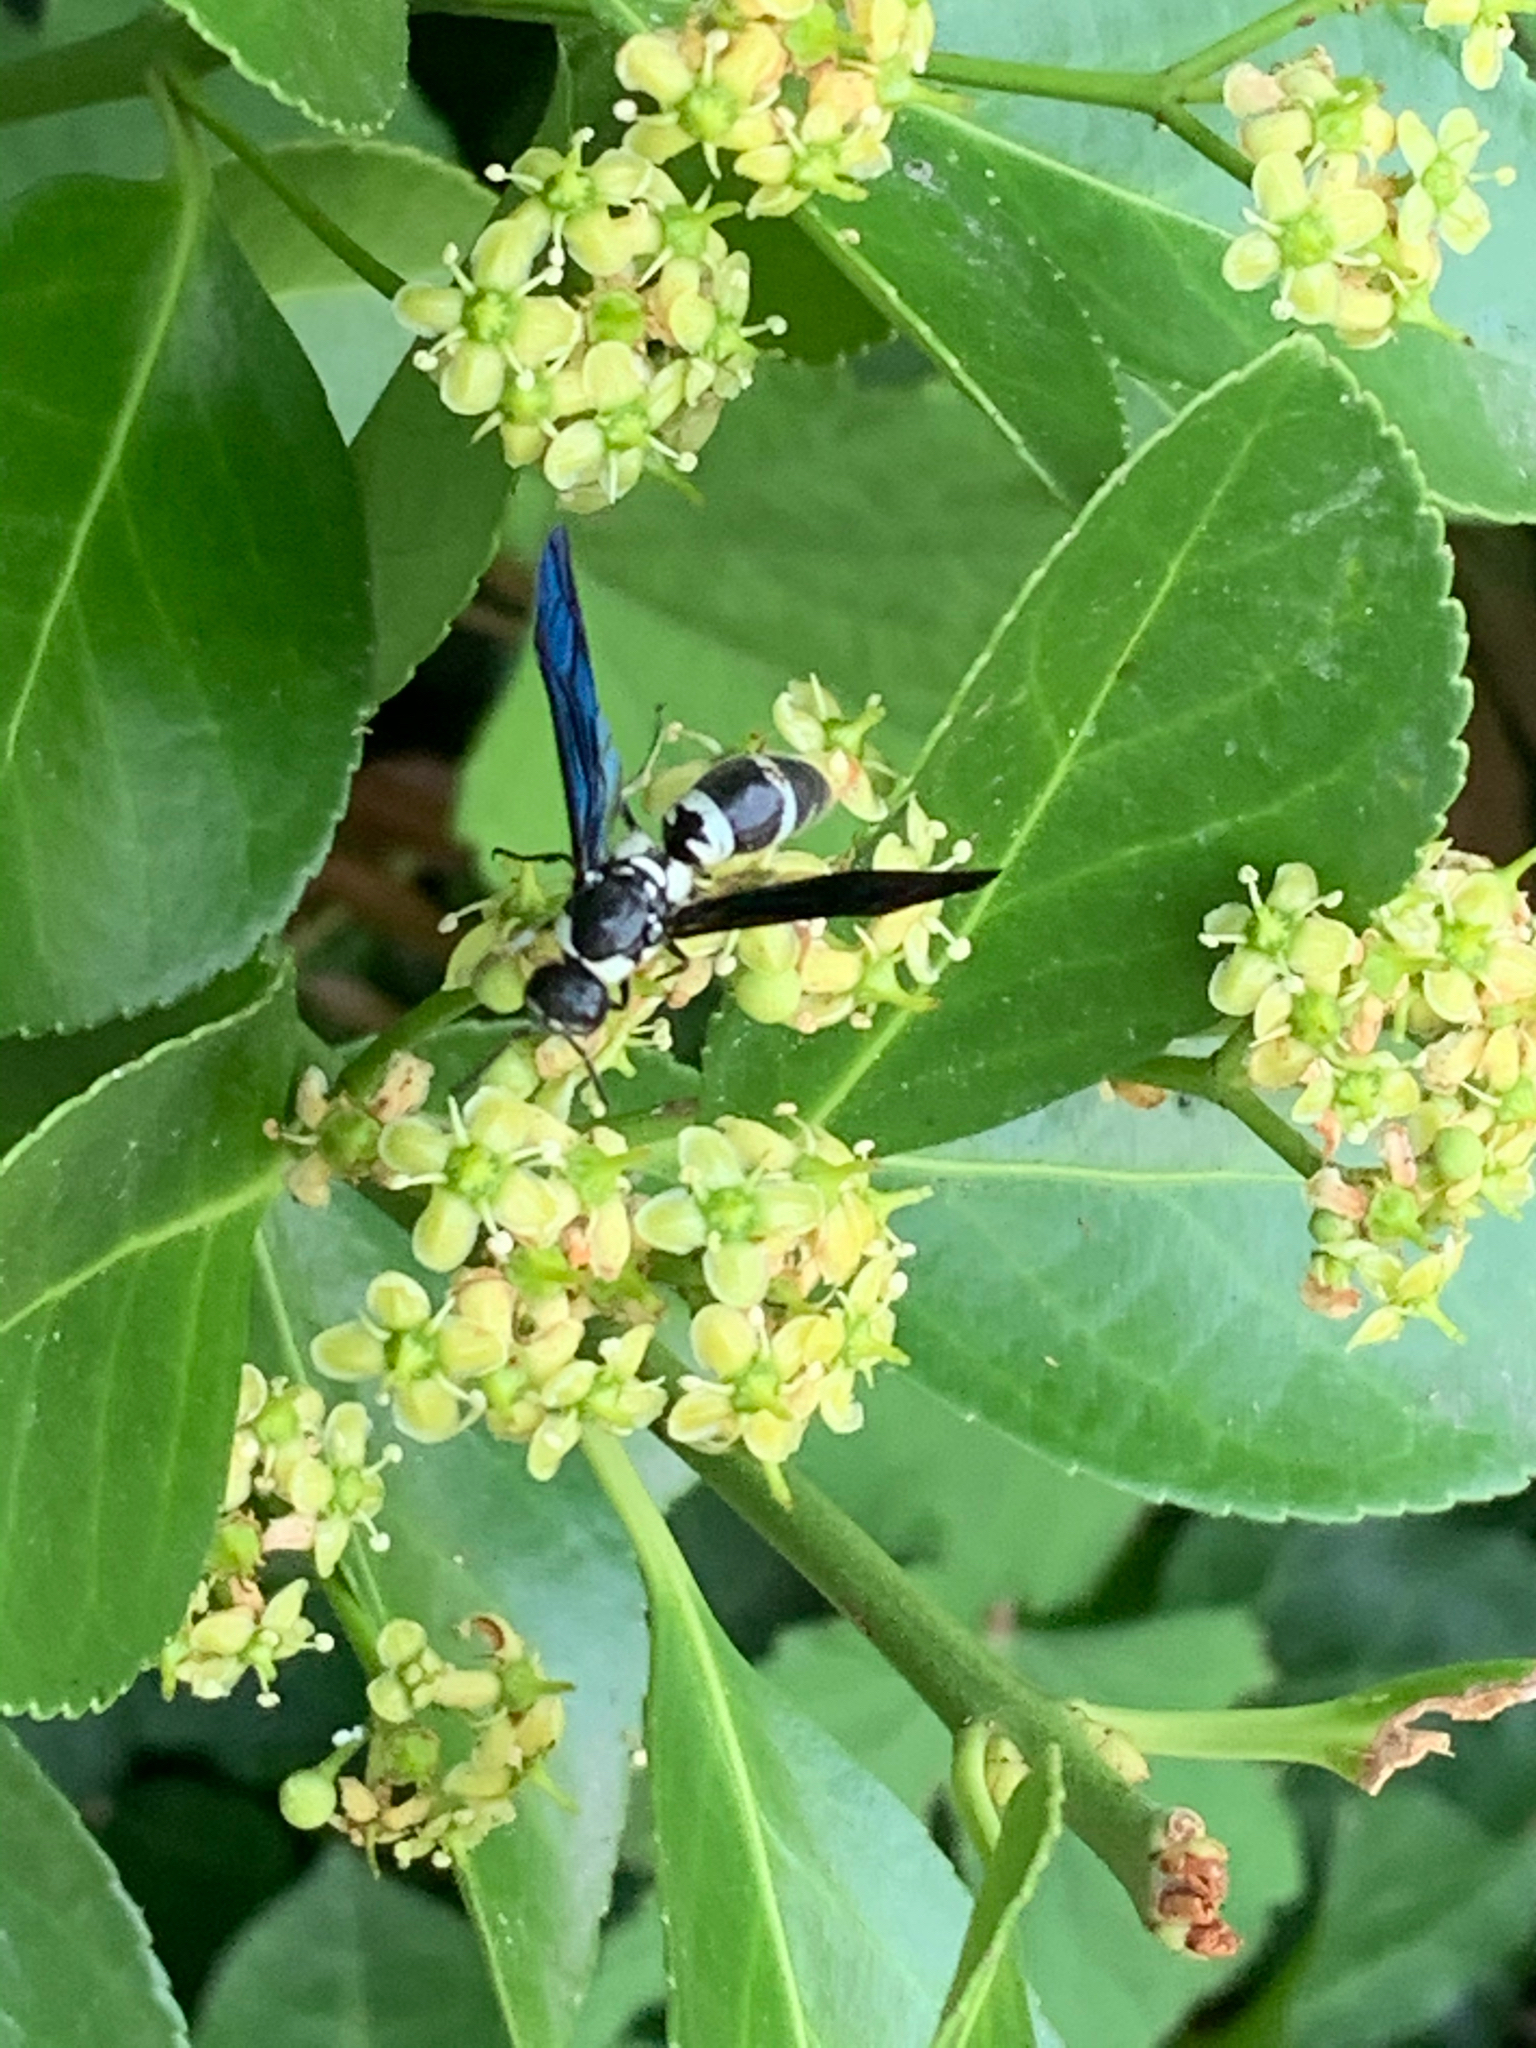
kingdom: Animalia
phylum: Arthropoda
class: Insecta
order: Hymenoptera
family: Eumenidae
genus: Pseudodynerus
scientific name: Pseudodynerus quadrisectus
